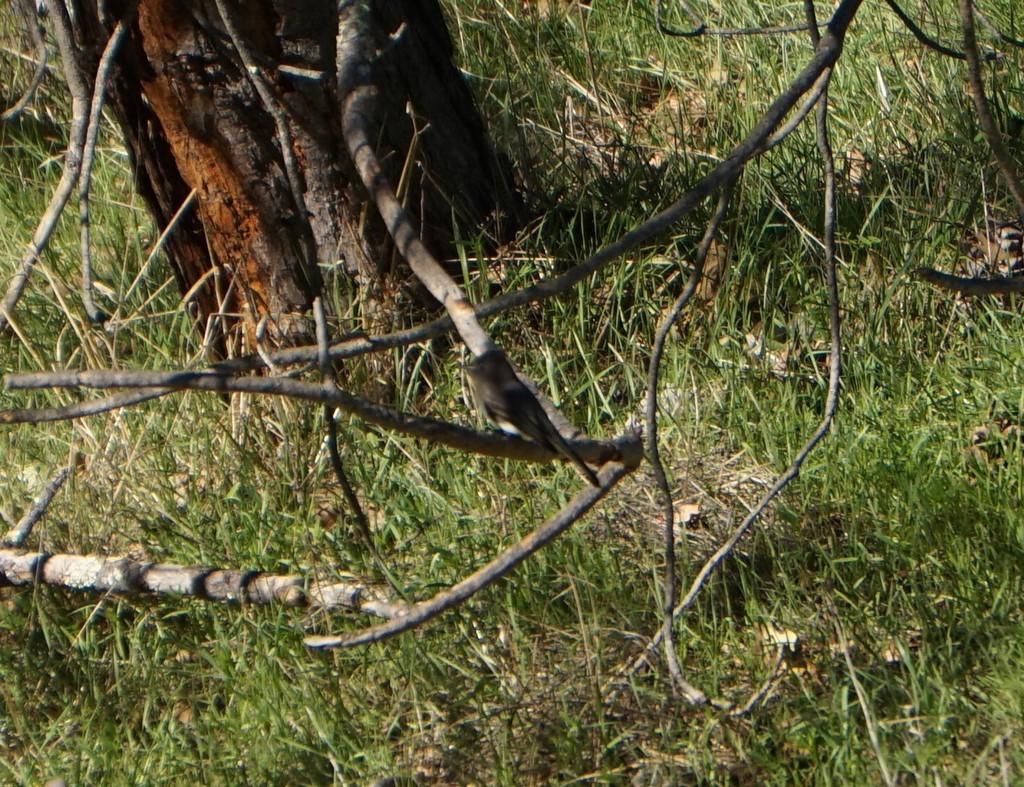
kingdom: Animalia
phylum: Chordata
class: Aves
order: Passeriformes
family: Tyrannidae
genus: Sayornis
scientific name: Sayornis nigricans
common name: Black phoebe
